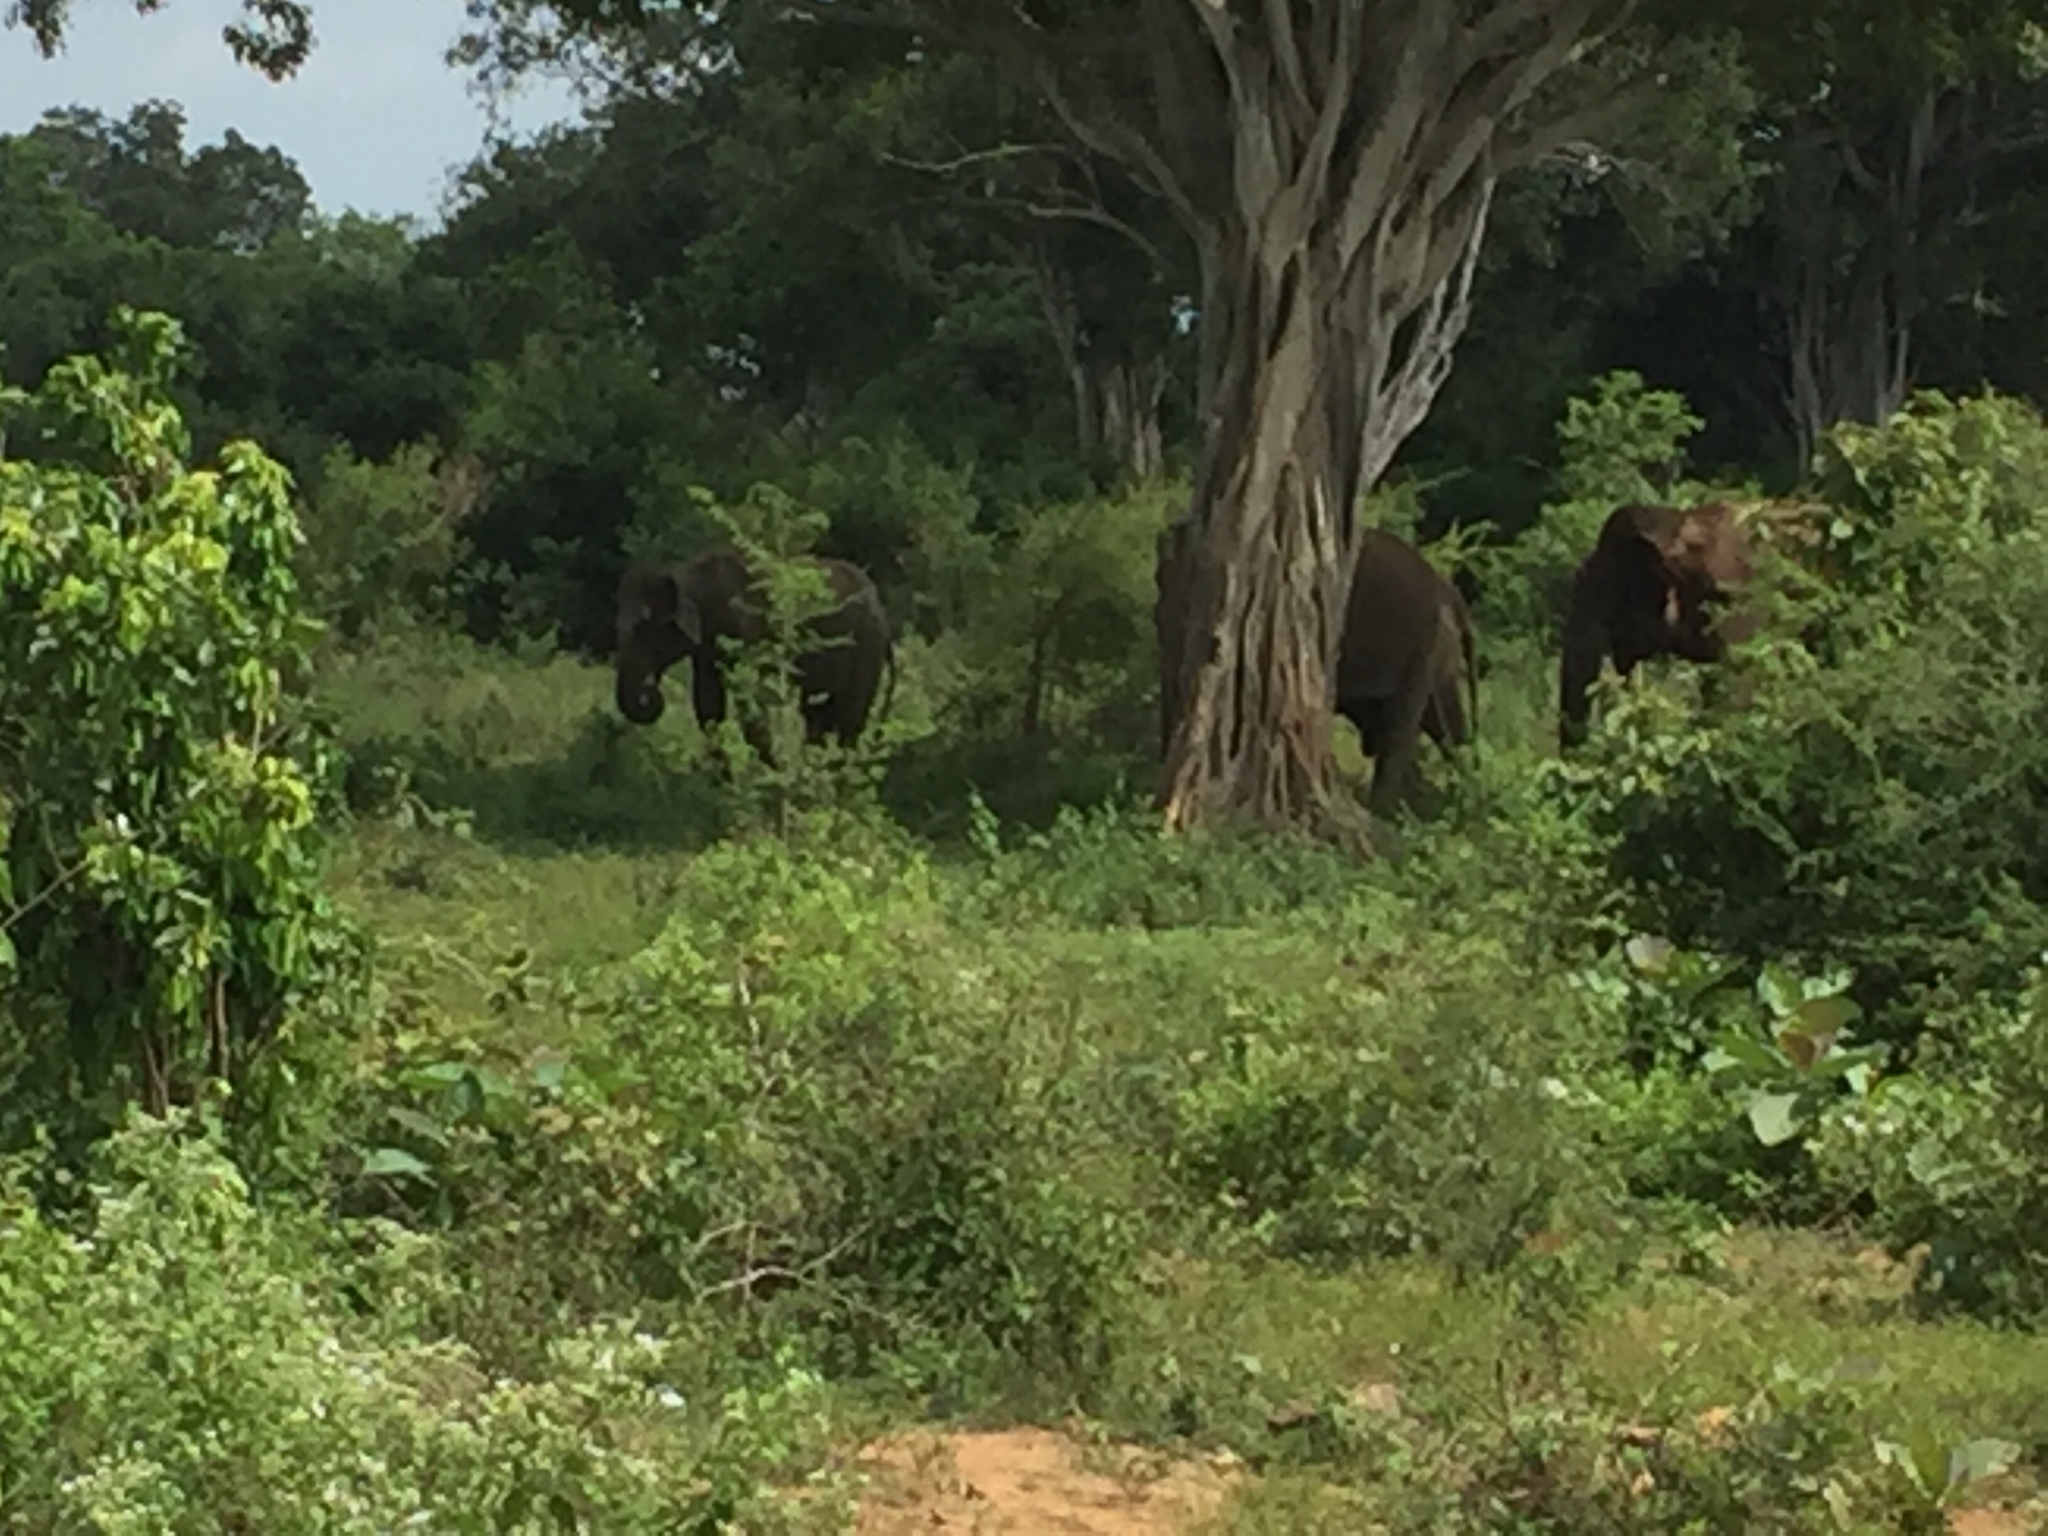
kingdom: Animalia
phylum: Chordata
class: Mammalia
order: Proboscidea
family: Elephantidae
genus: Elephas
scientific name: Elephas maximus
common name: Asian elephant
